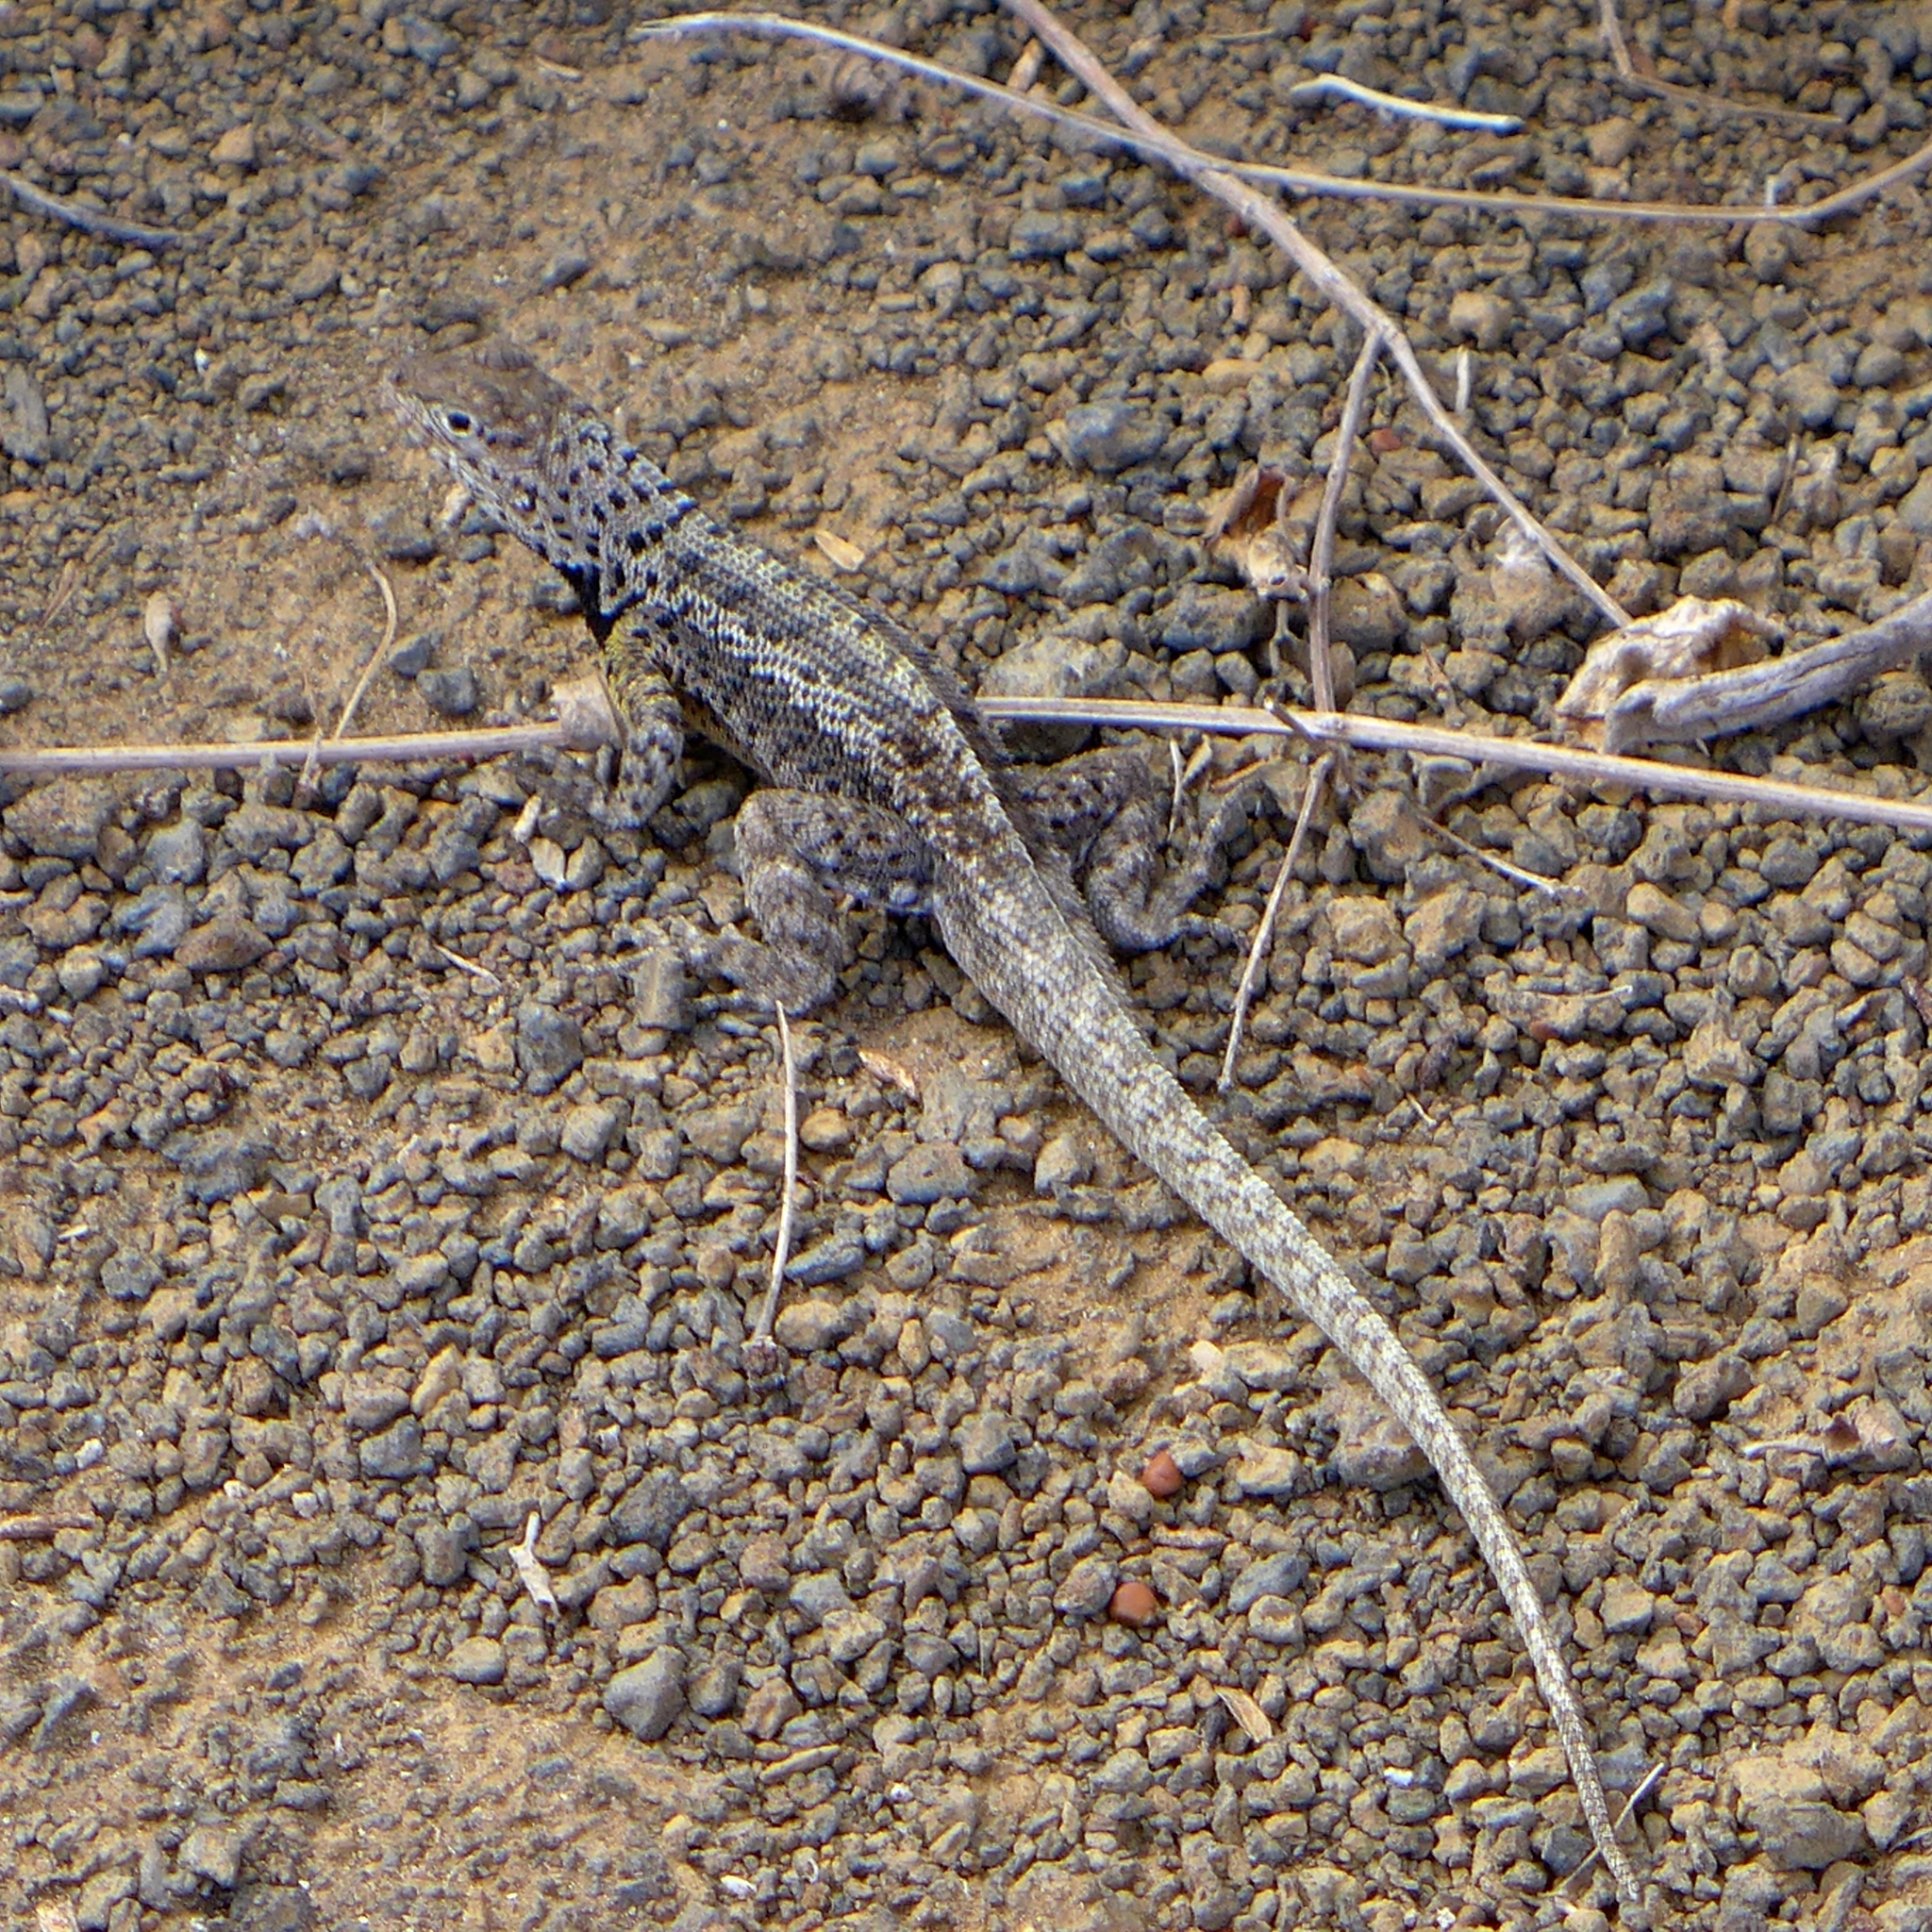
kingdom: Animalia
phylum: Chordata
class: Squamata
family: Tropiduridae
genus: Microlophus
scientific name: Microlophus grayii
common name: Floreana lava lizard
